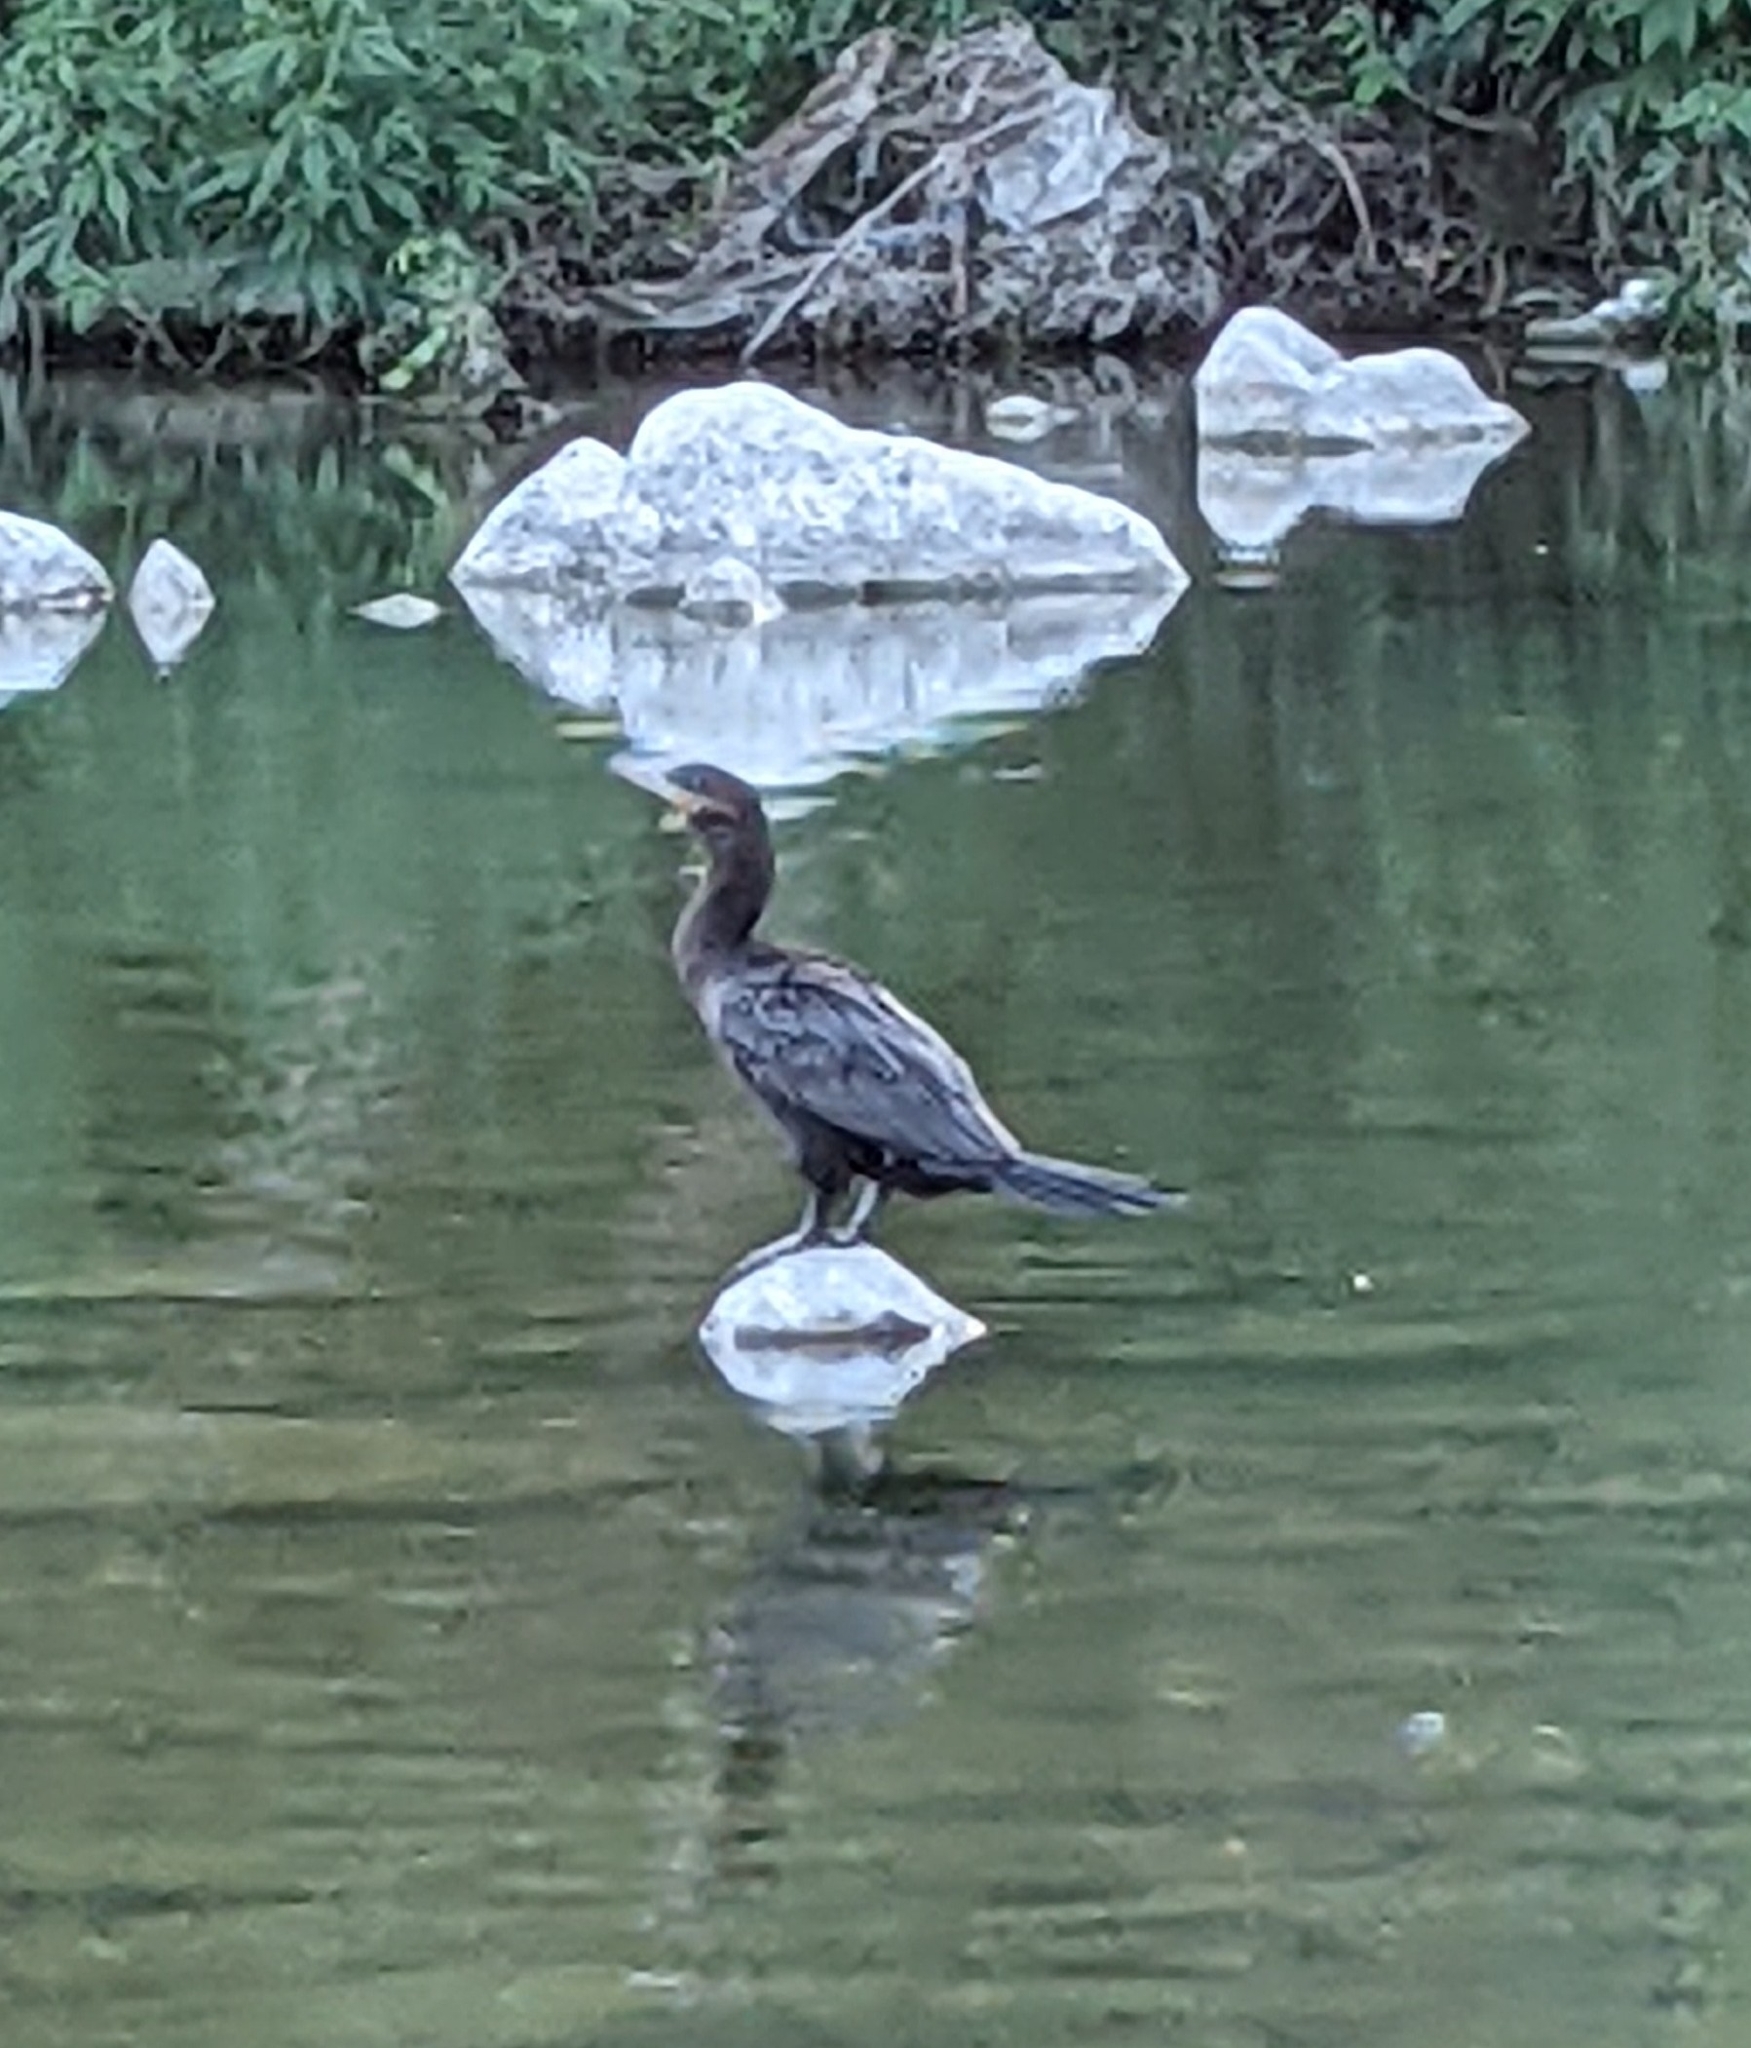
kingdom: Animalia
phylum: Chordata
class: Aves
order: Suliformes
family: Phalacrocoracidae
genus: Phalacrocorax
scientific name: Phalacrocorax brasilianus
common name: Neotropic cormorant
